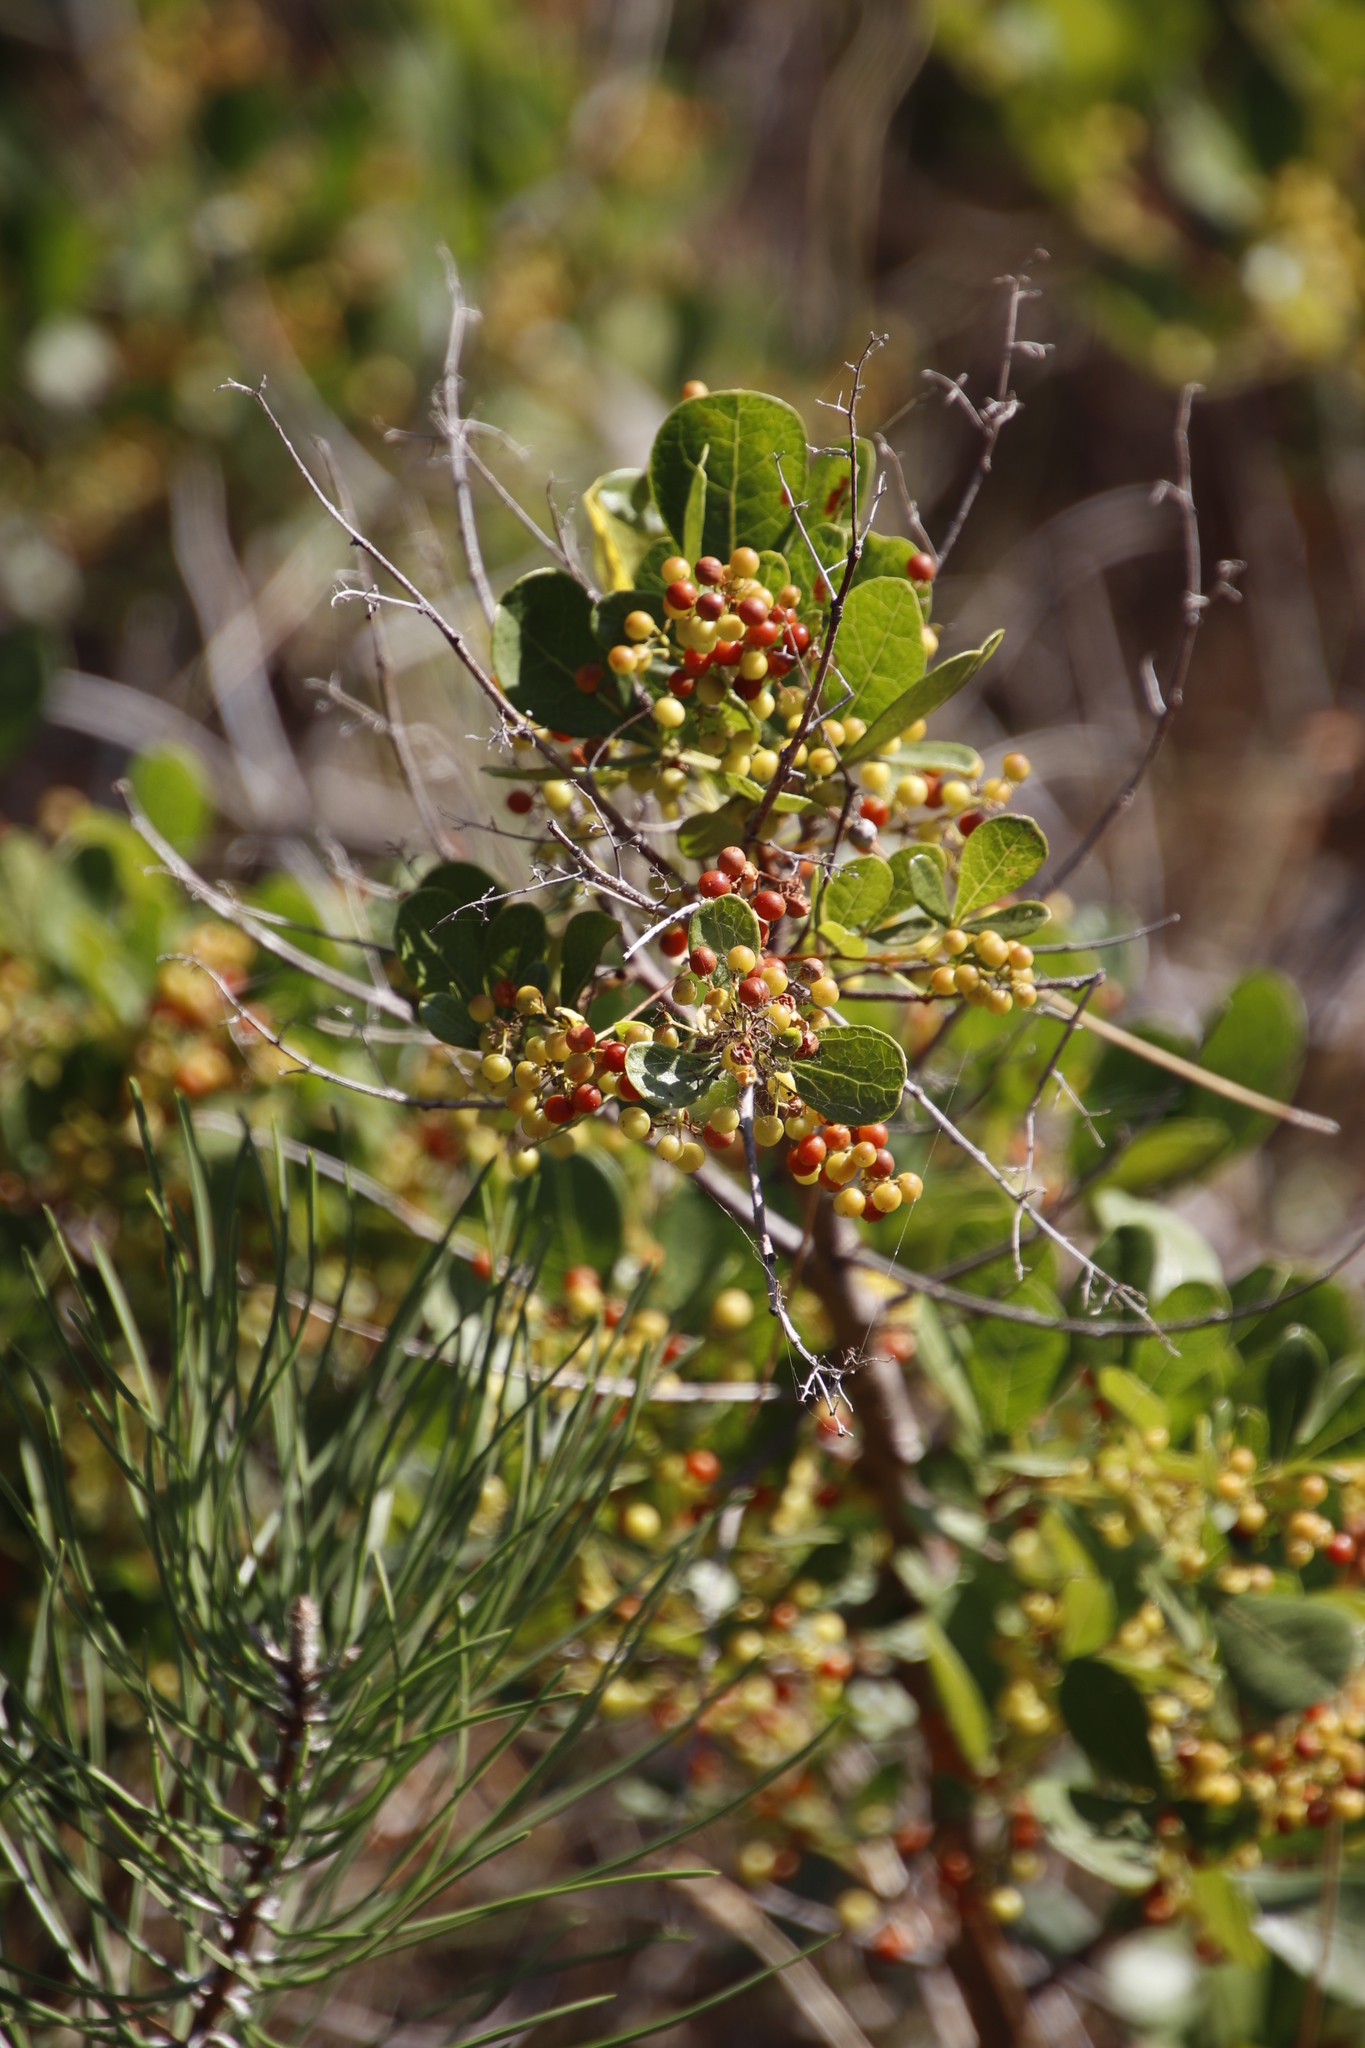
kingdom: Plantae
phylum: Tracheophyta
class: Magnoliopsida
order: Sapindales
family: Anacardiaceae
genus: Searsia
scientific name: Searsia laevigata
